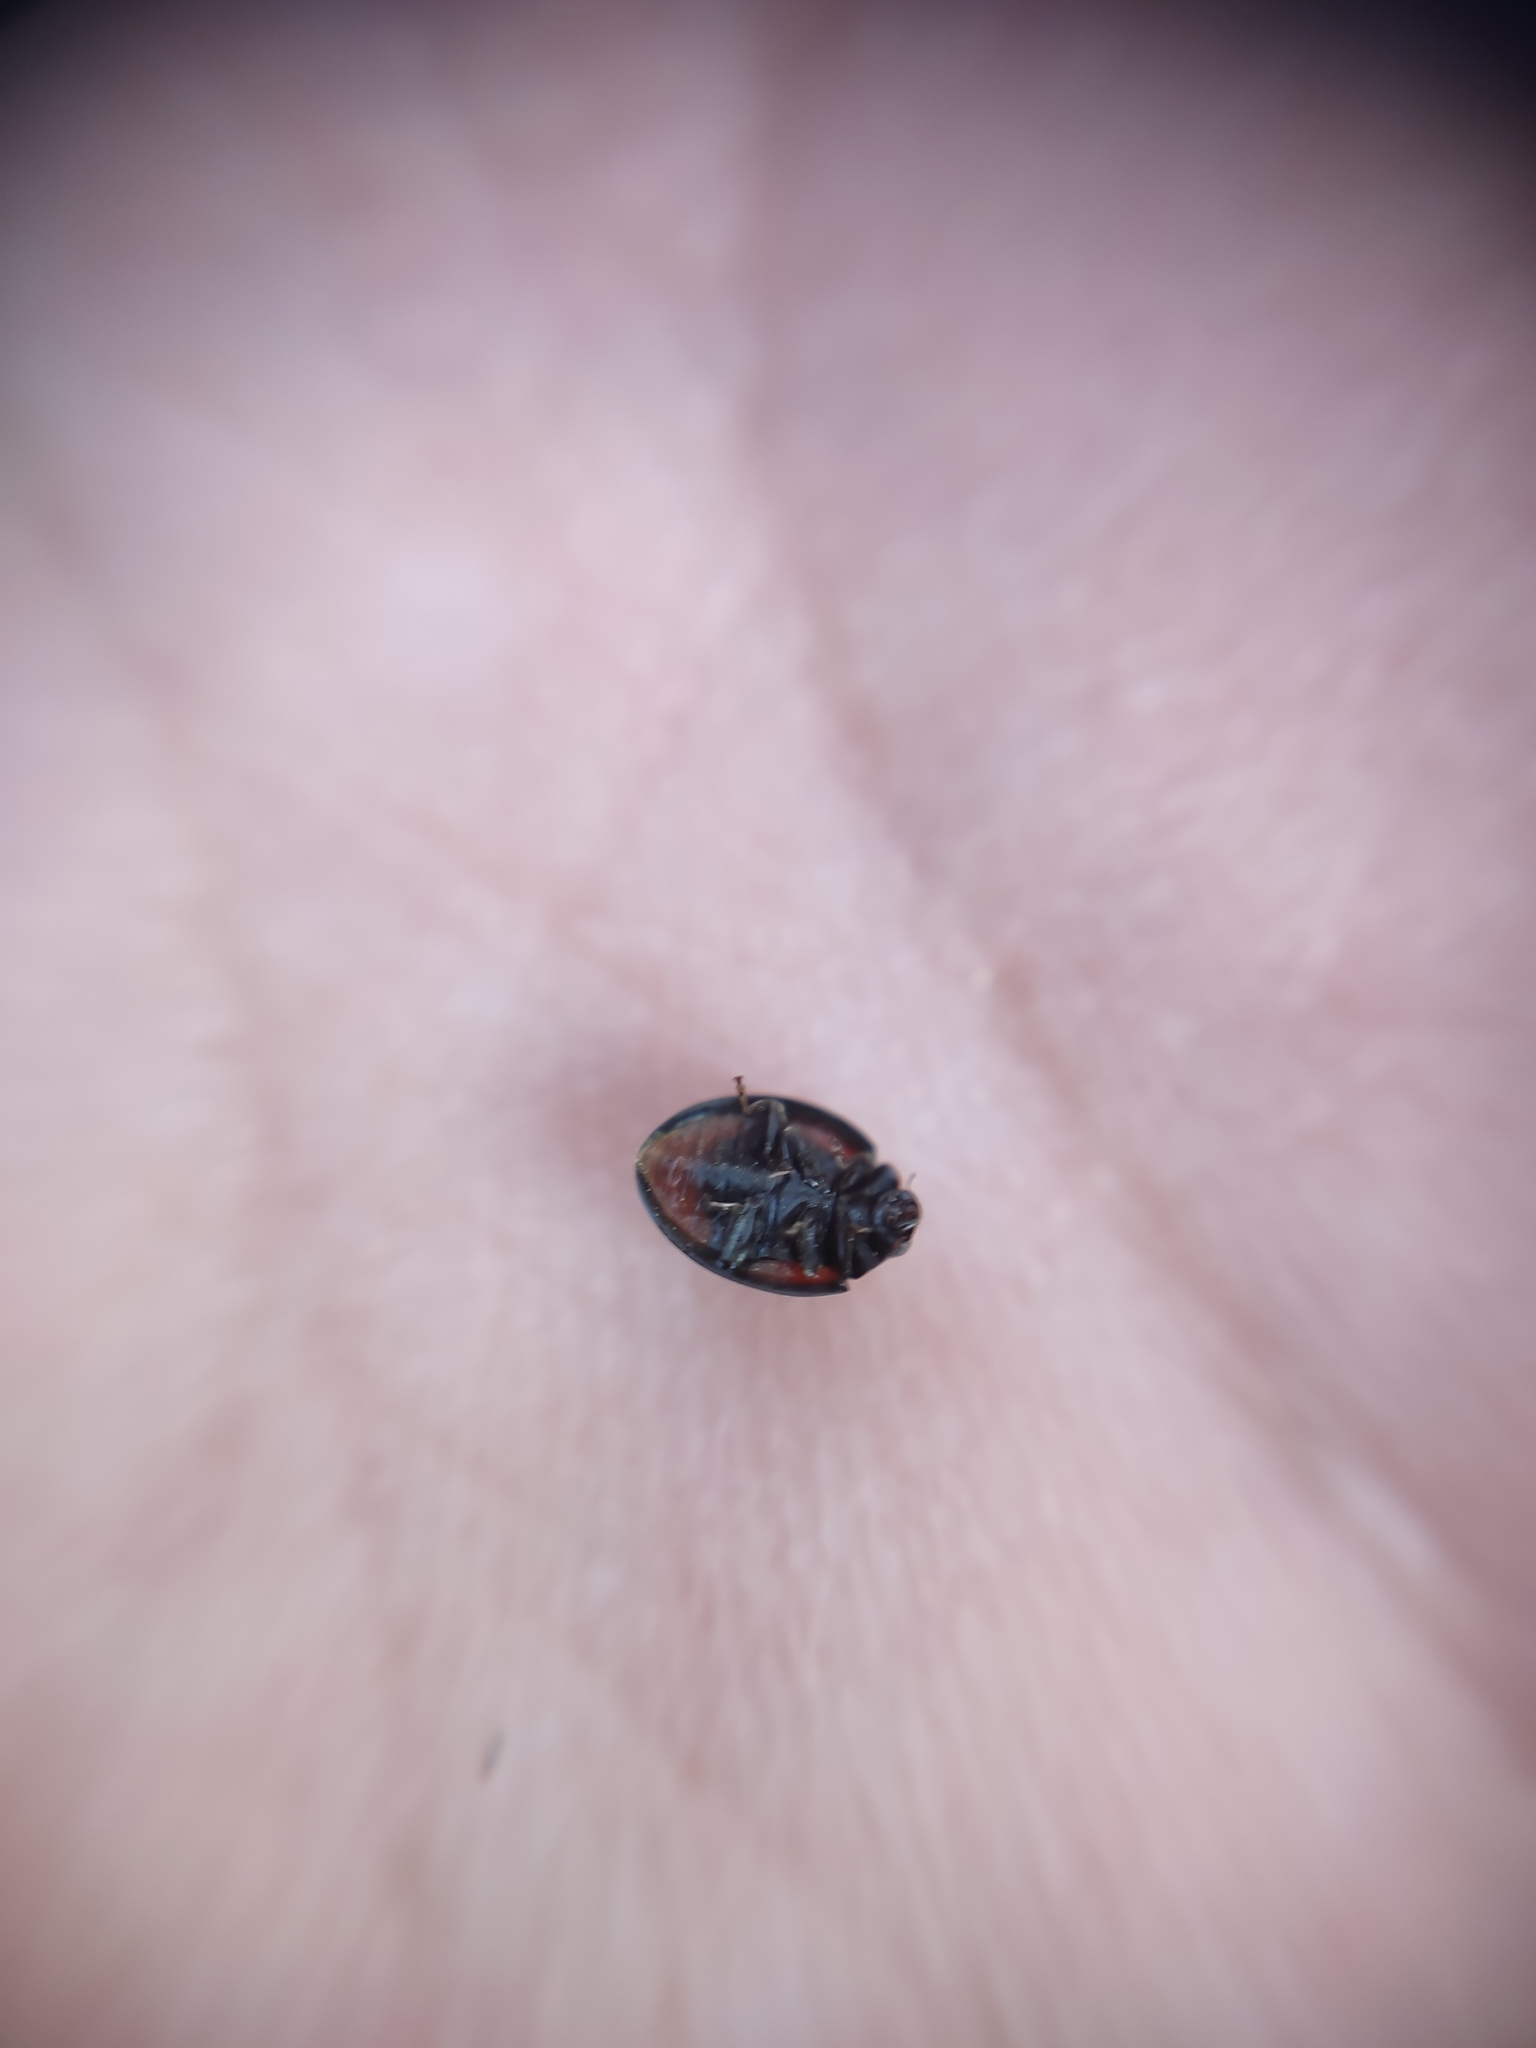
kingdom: Animalia
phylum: Arthropoda
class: Insecta
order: Coleoptera
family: Coccinellidae
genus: Brumus
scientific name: Brumus quadripustulatus
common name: Ladybird beetle
